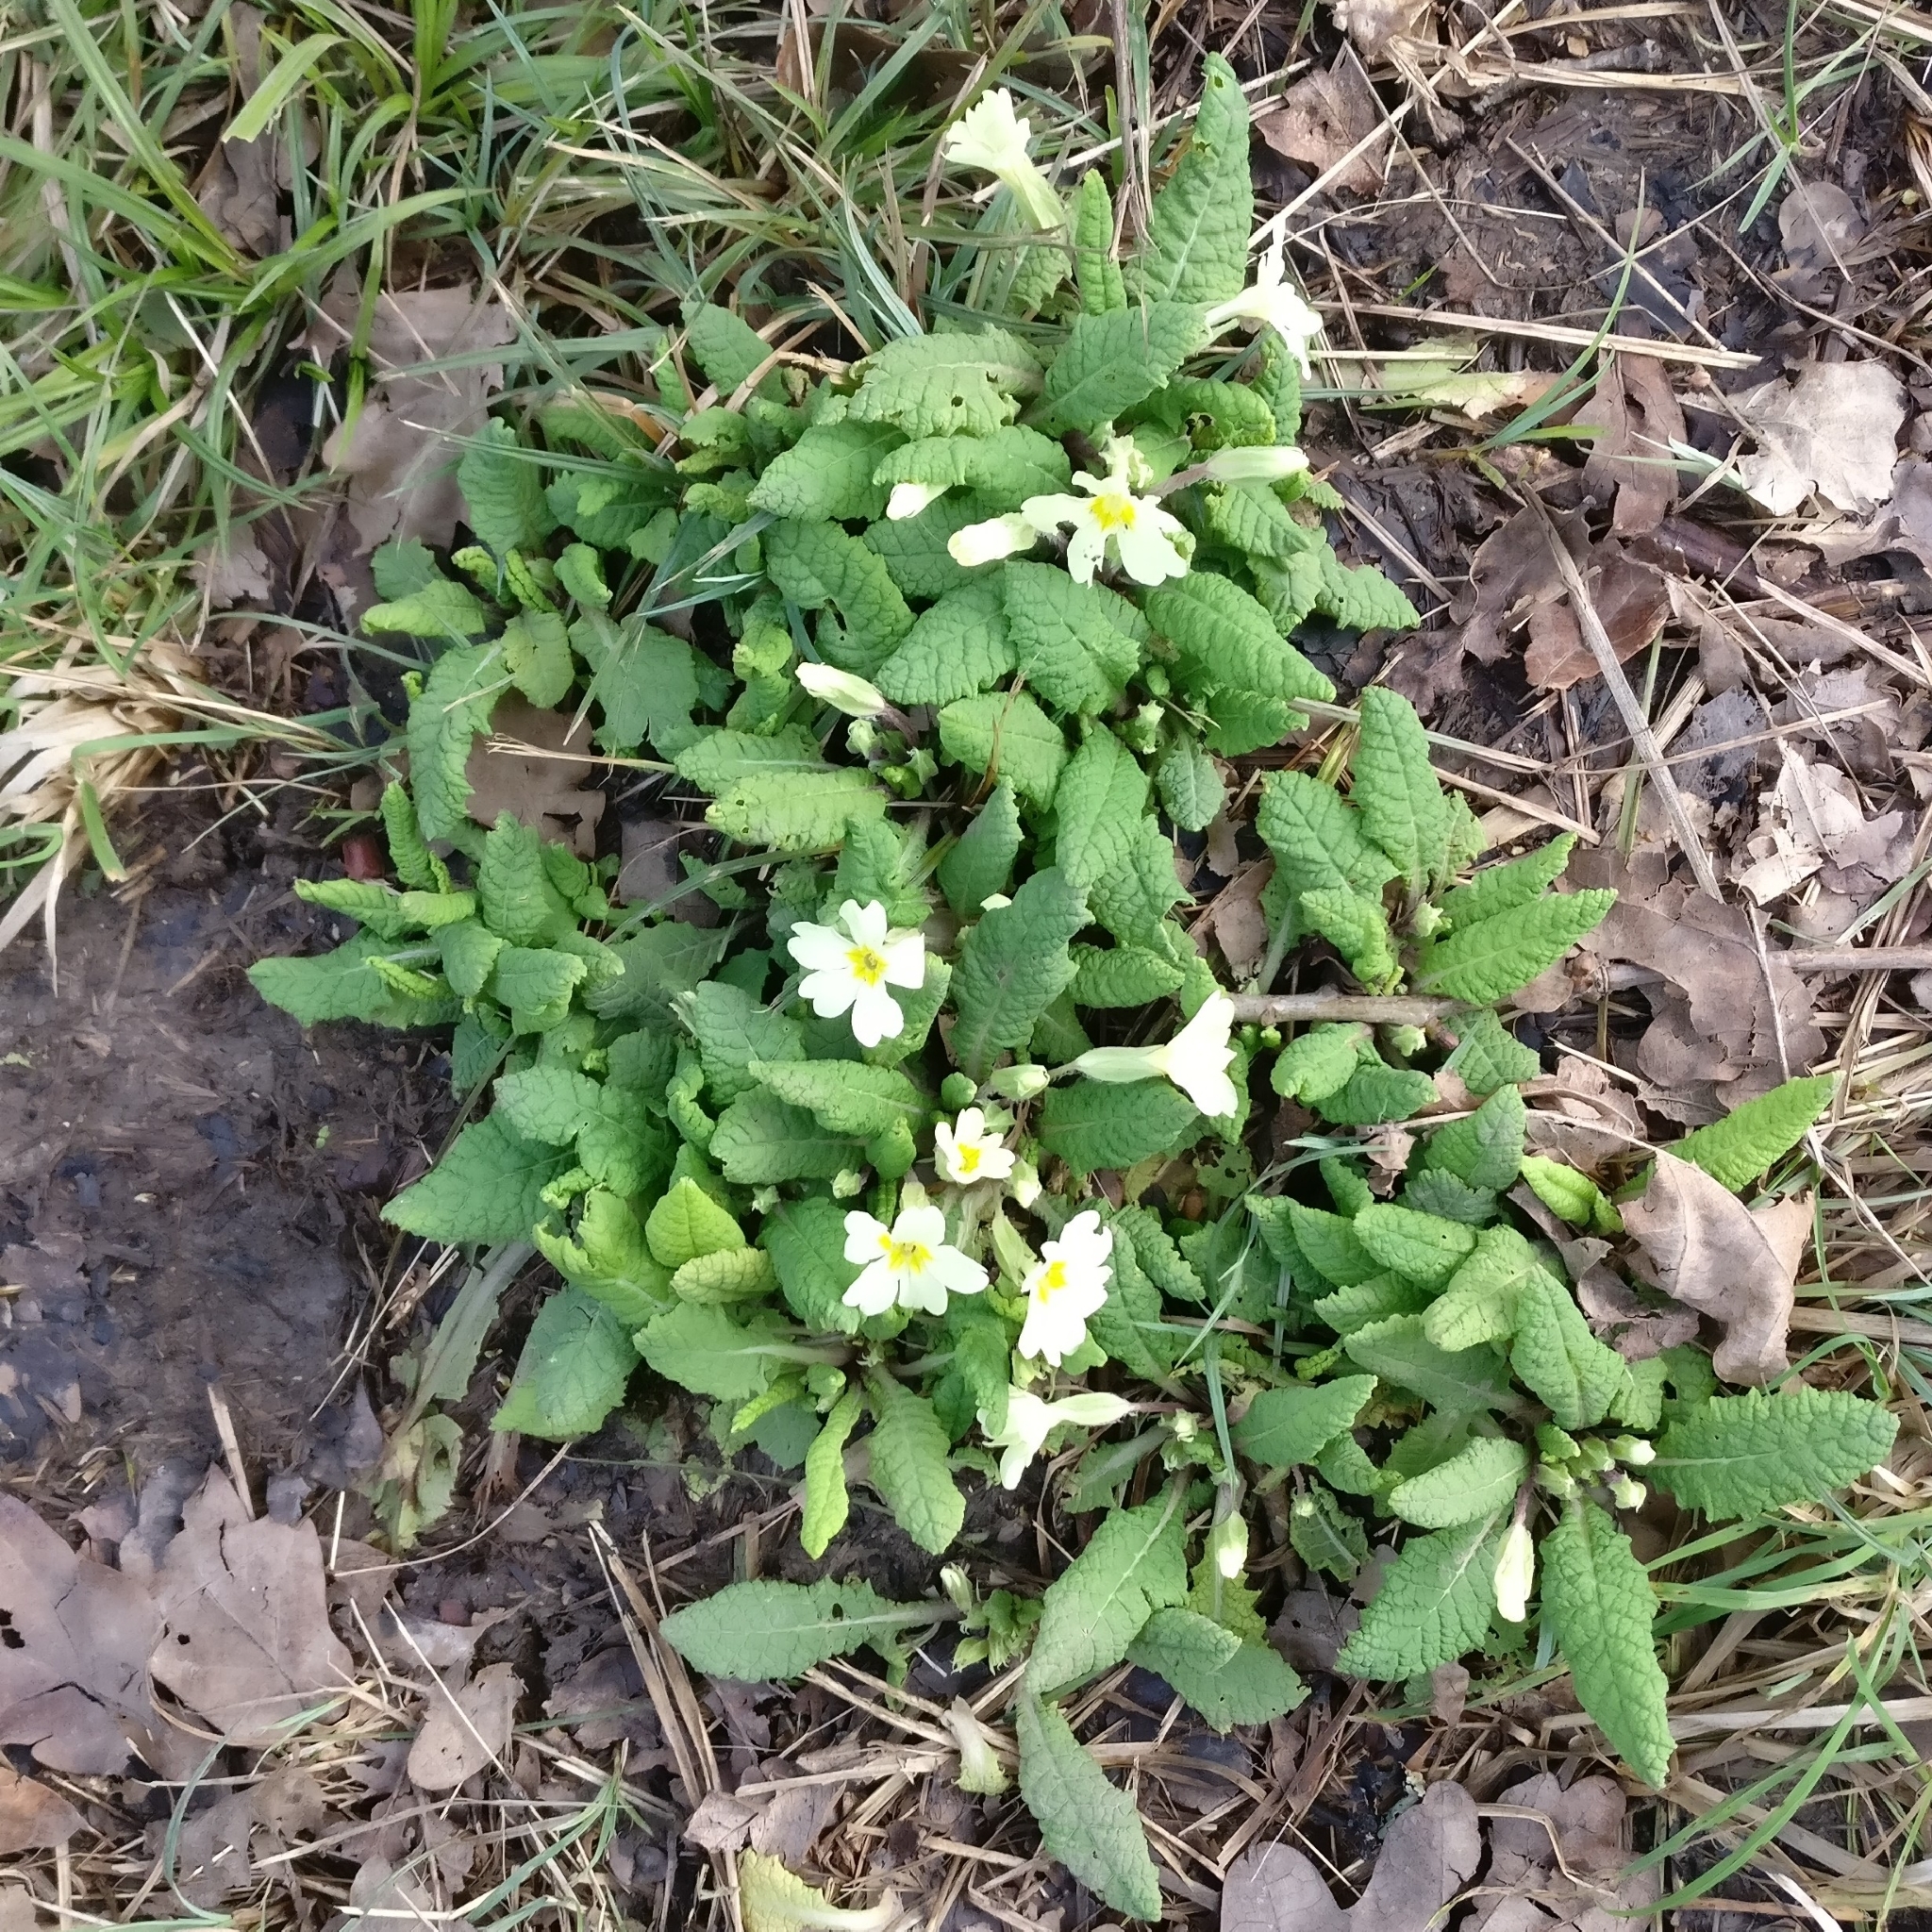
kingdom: Plantae
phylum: Tracheophyta
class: Magnoliopsida
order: Ericales
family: Primulaceae
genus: Primula
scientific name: Primula vulgaris
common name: Primrose
